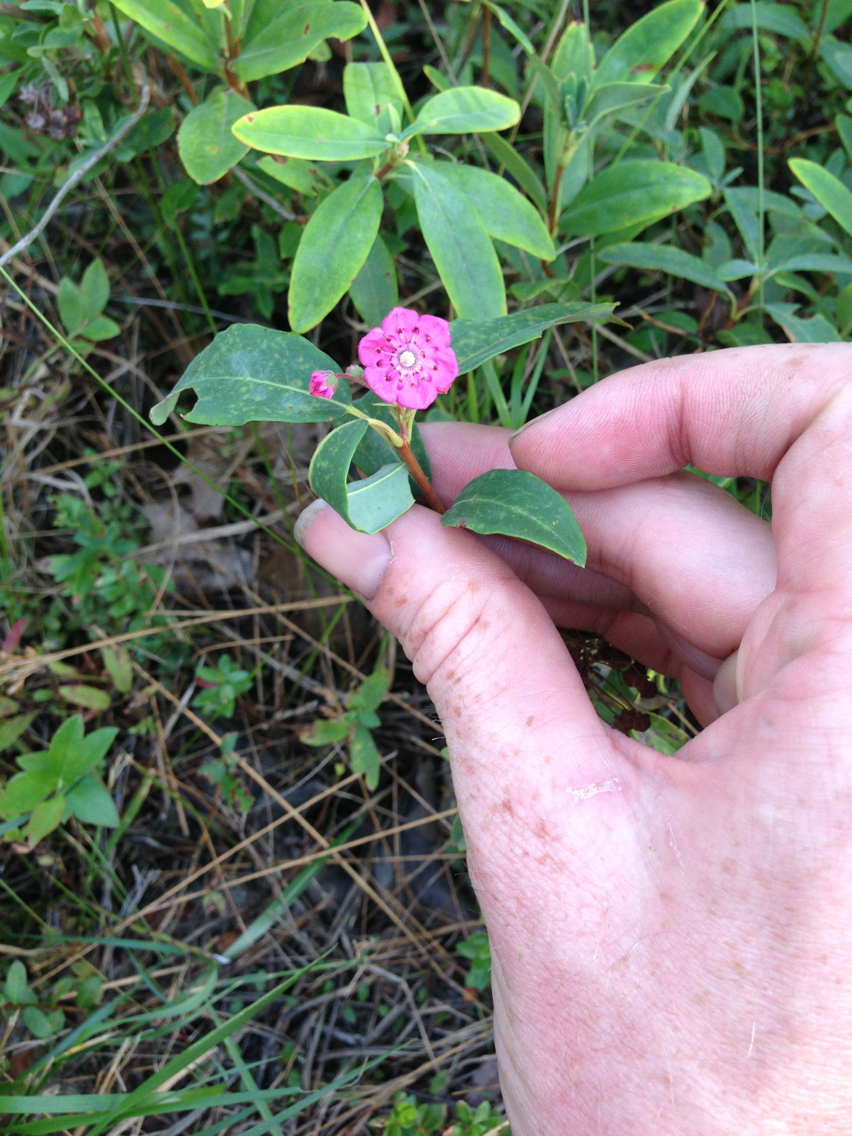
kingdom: Plantae
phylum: Tracheophyta
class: Magnoliopsida
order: Ericales
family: Ericaceae
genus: Kalmia
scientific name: Kalmia angustifolia
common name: Sheep-laurel
